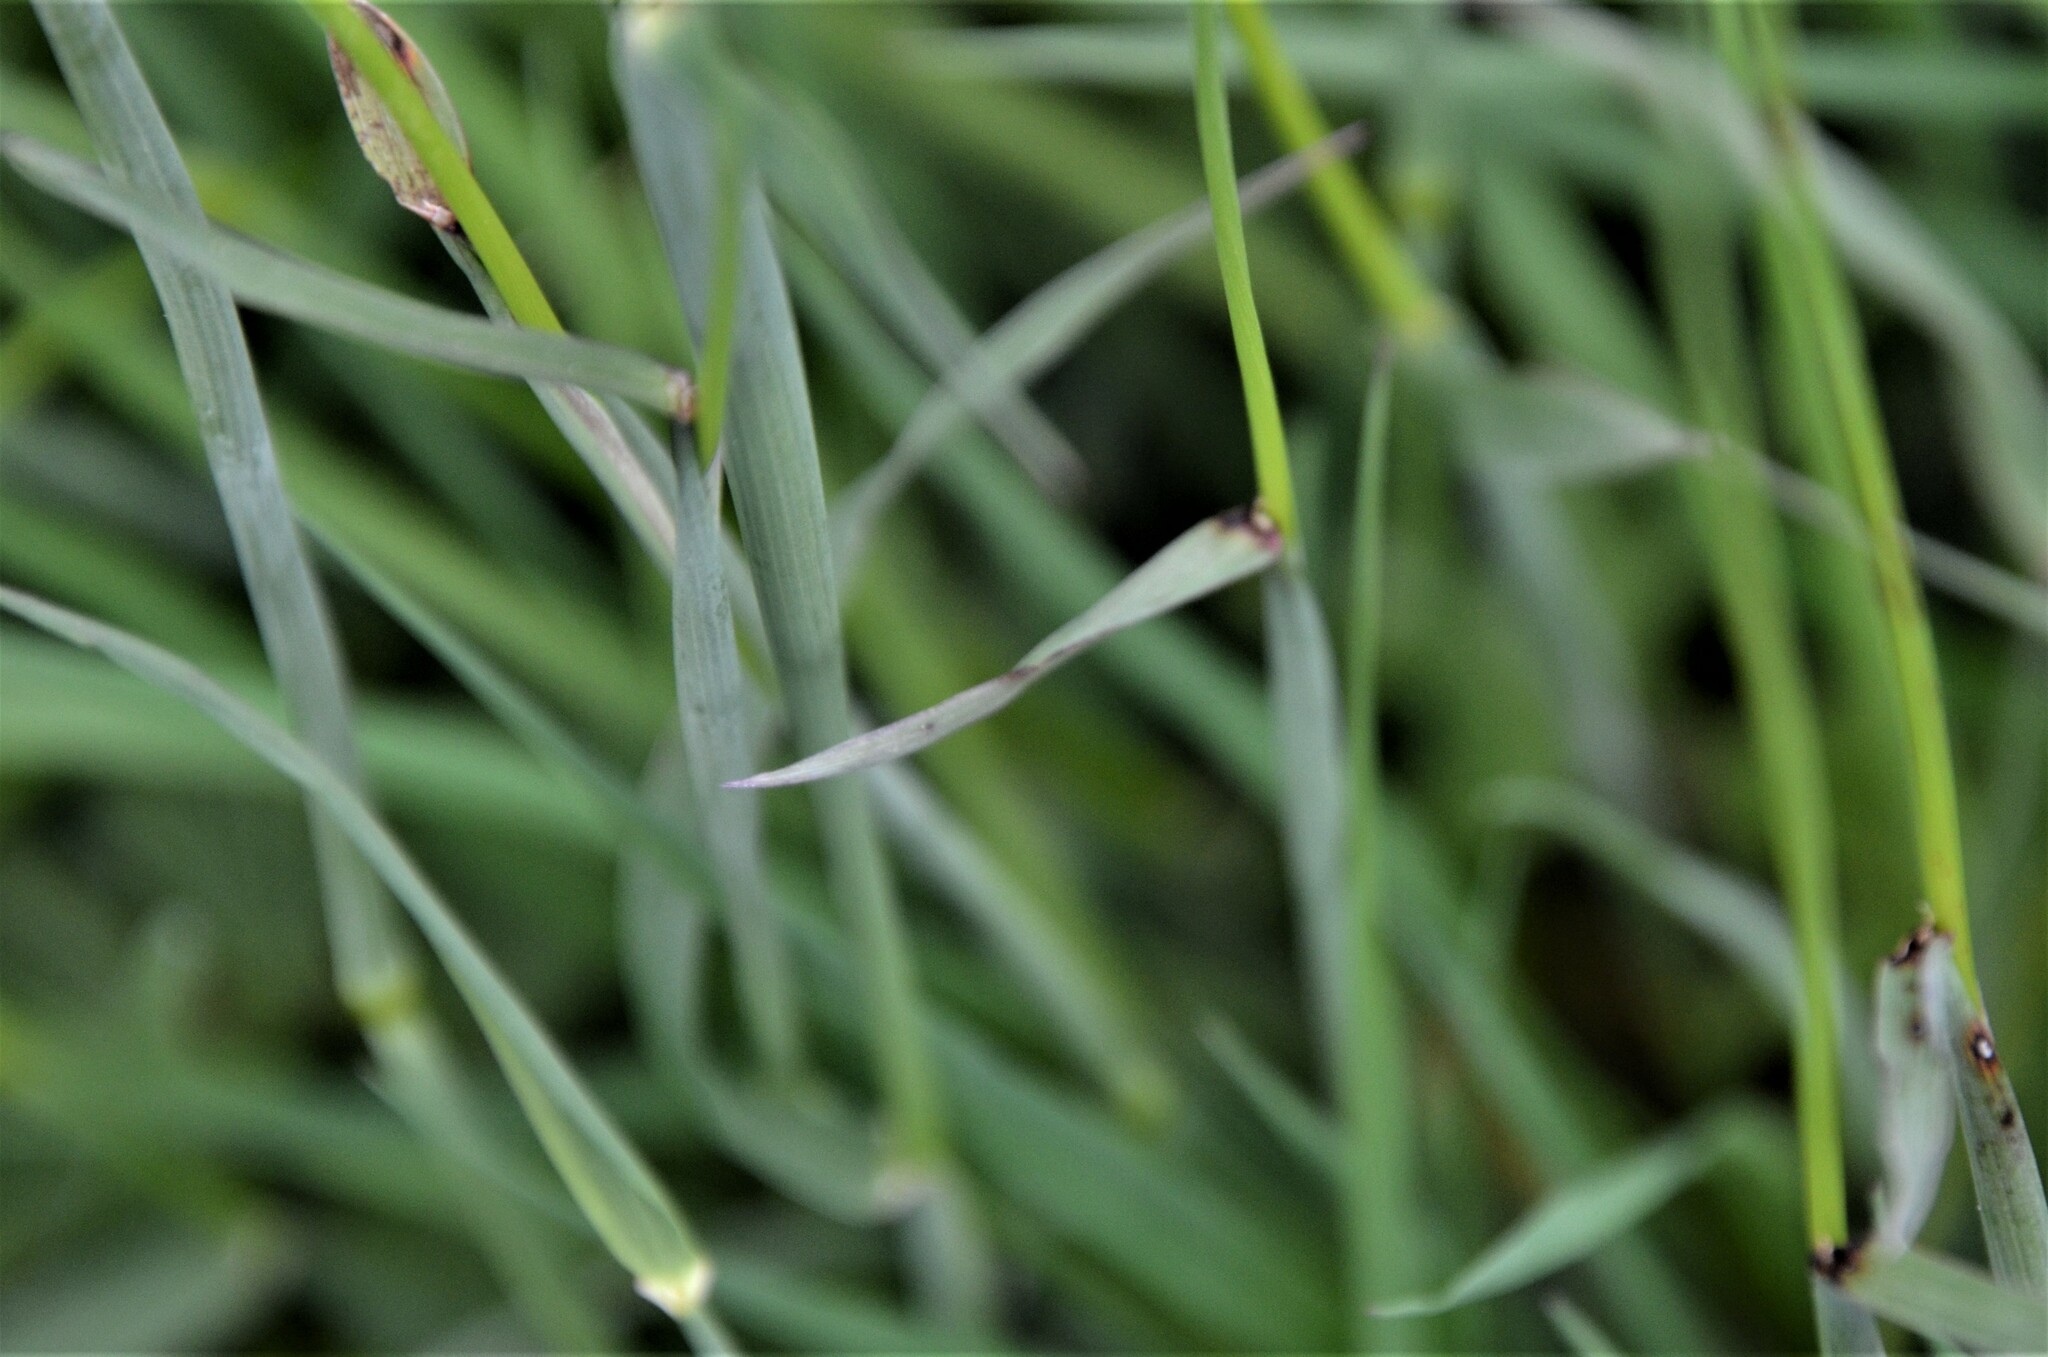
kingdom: Plantae
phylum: Tracheophyta
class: Liliopsida
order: Poales
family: Poaceae
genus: Alopecurus
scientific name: Alopecurus pratensis
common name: Meadow foxtail
